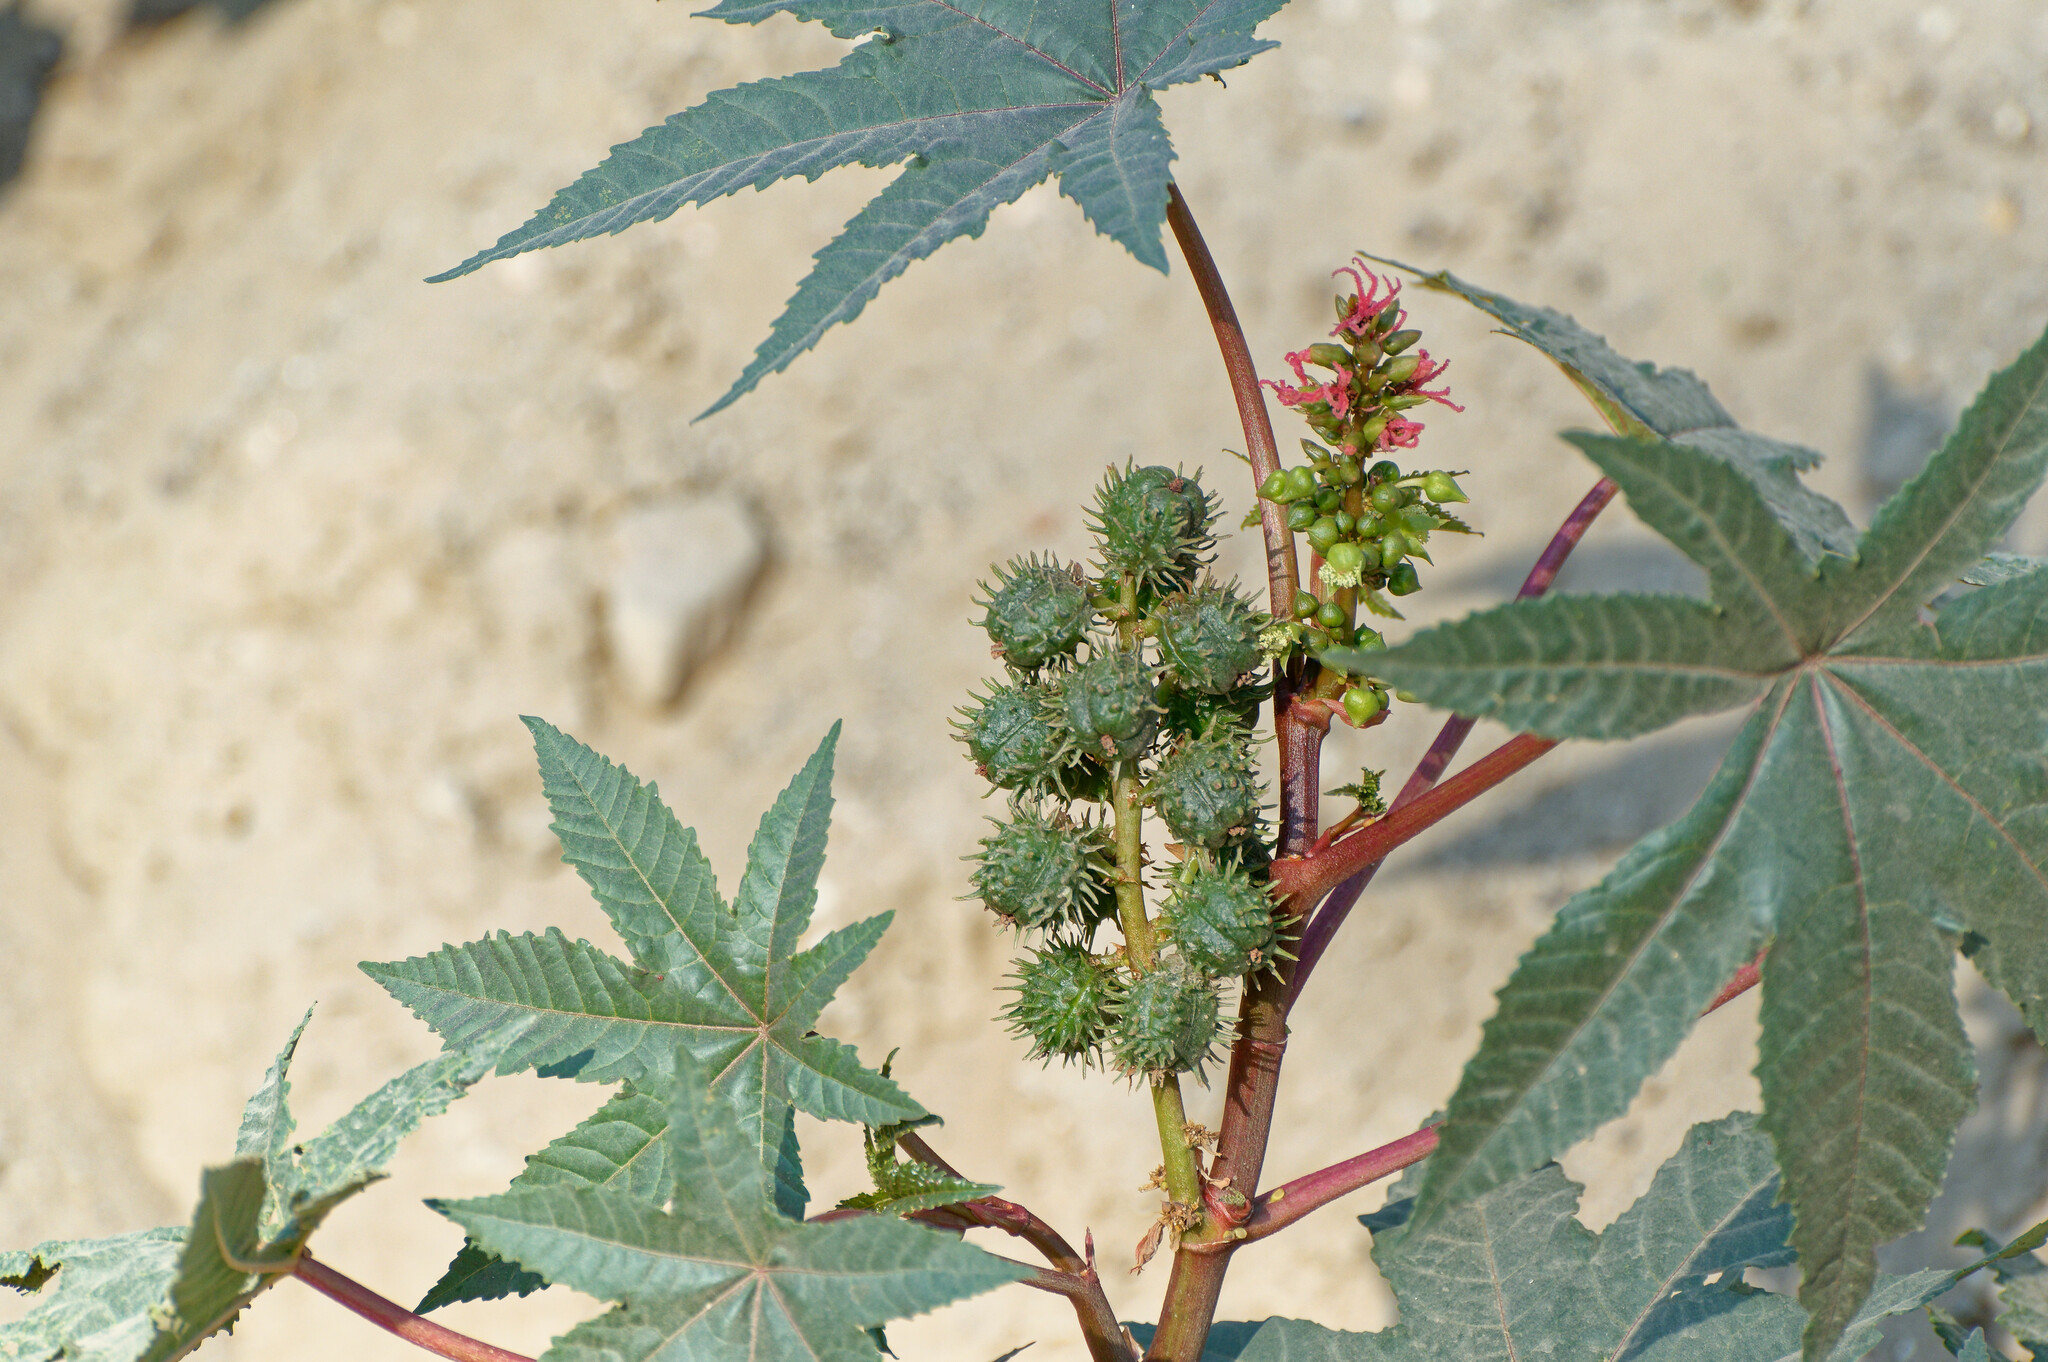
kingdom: Plantae
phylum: Tracheophyta
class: Magnoliopsida
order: Malpighiales
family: Euphorbiaceae
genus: Ricinus
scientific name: Ricinus communis
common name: Castor-oil-plant
